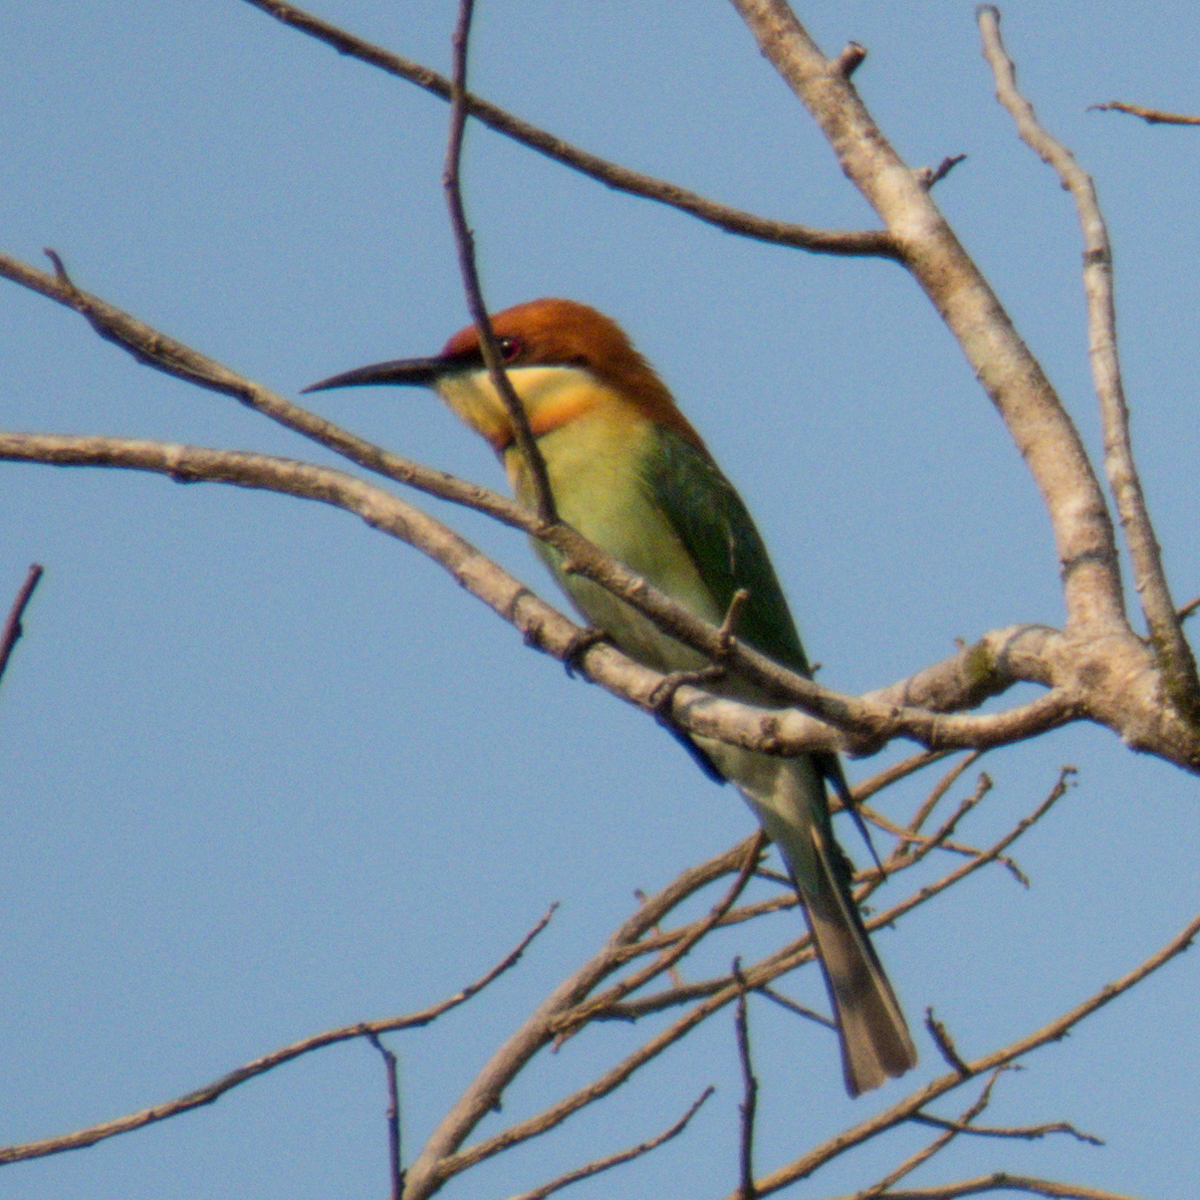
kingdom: Animalia
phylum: Chordata
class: Aves
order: Coraciiformes
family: Meropidae
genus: Merops
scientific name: Merops leschenaulti
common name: Chestnut-headed bee-eater
